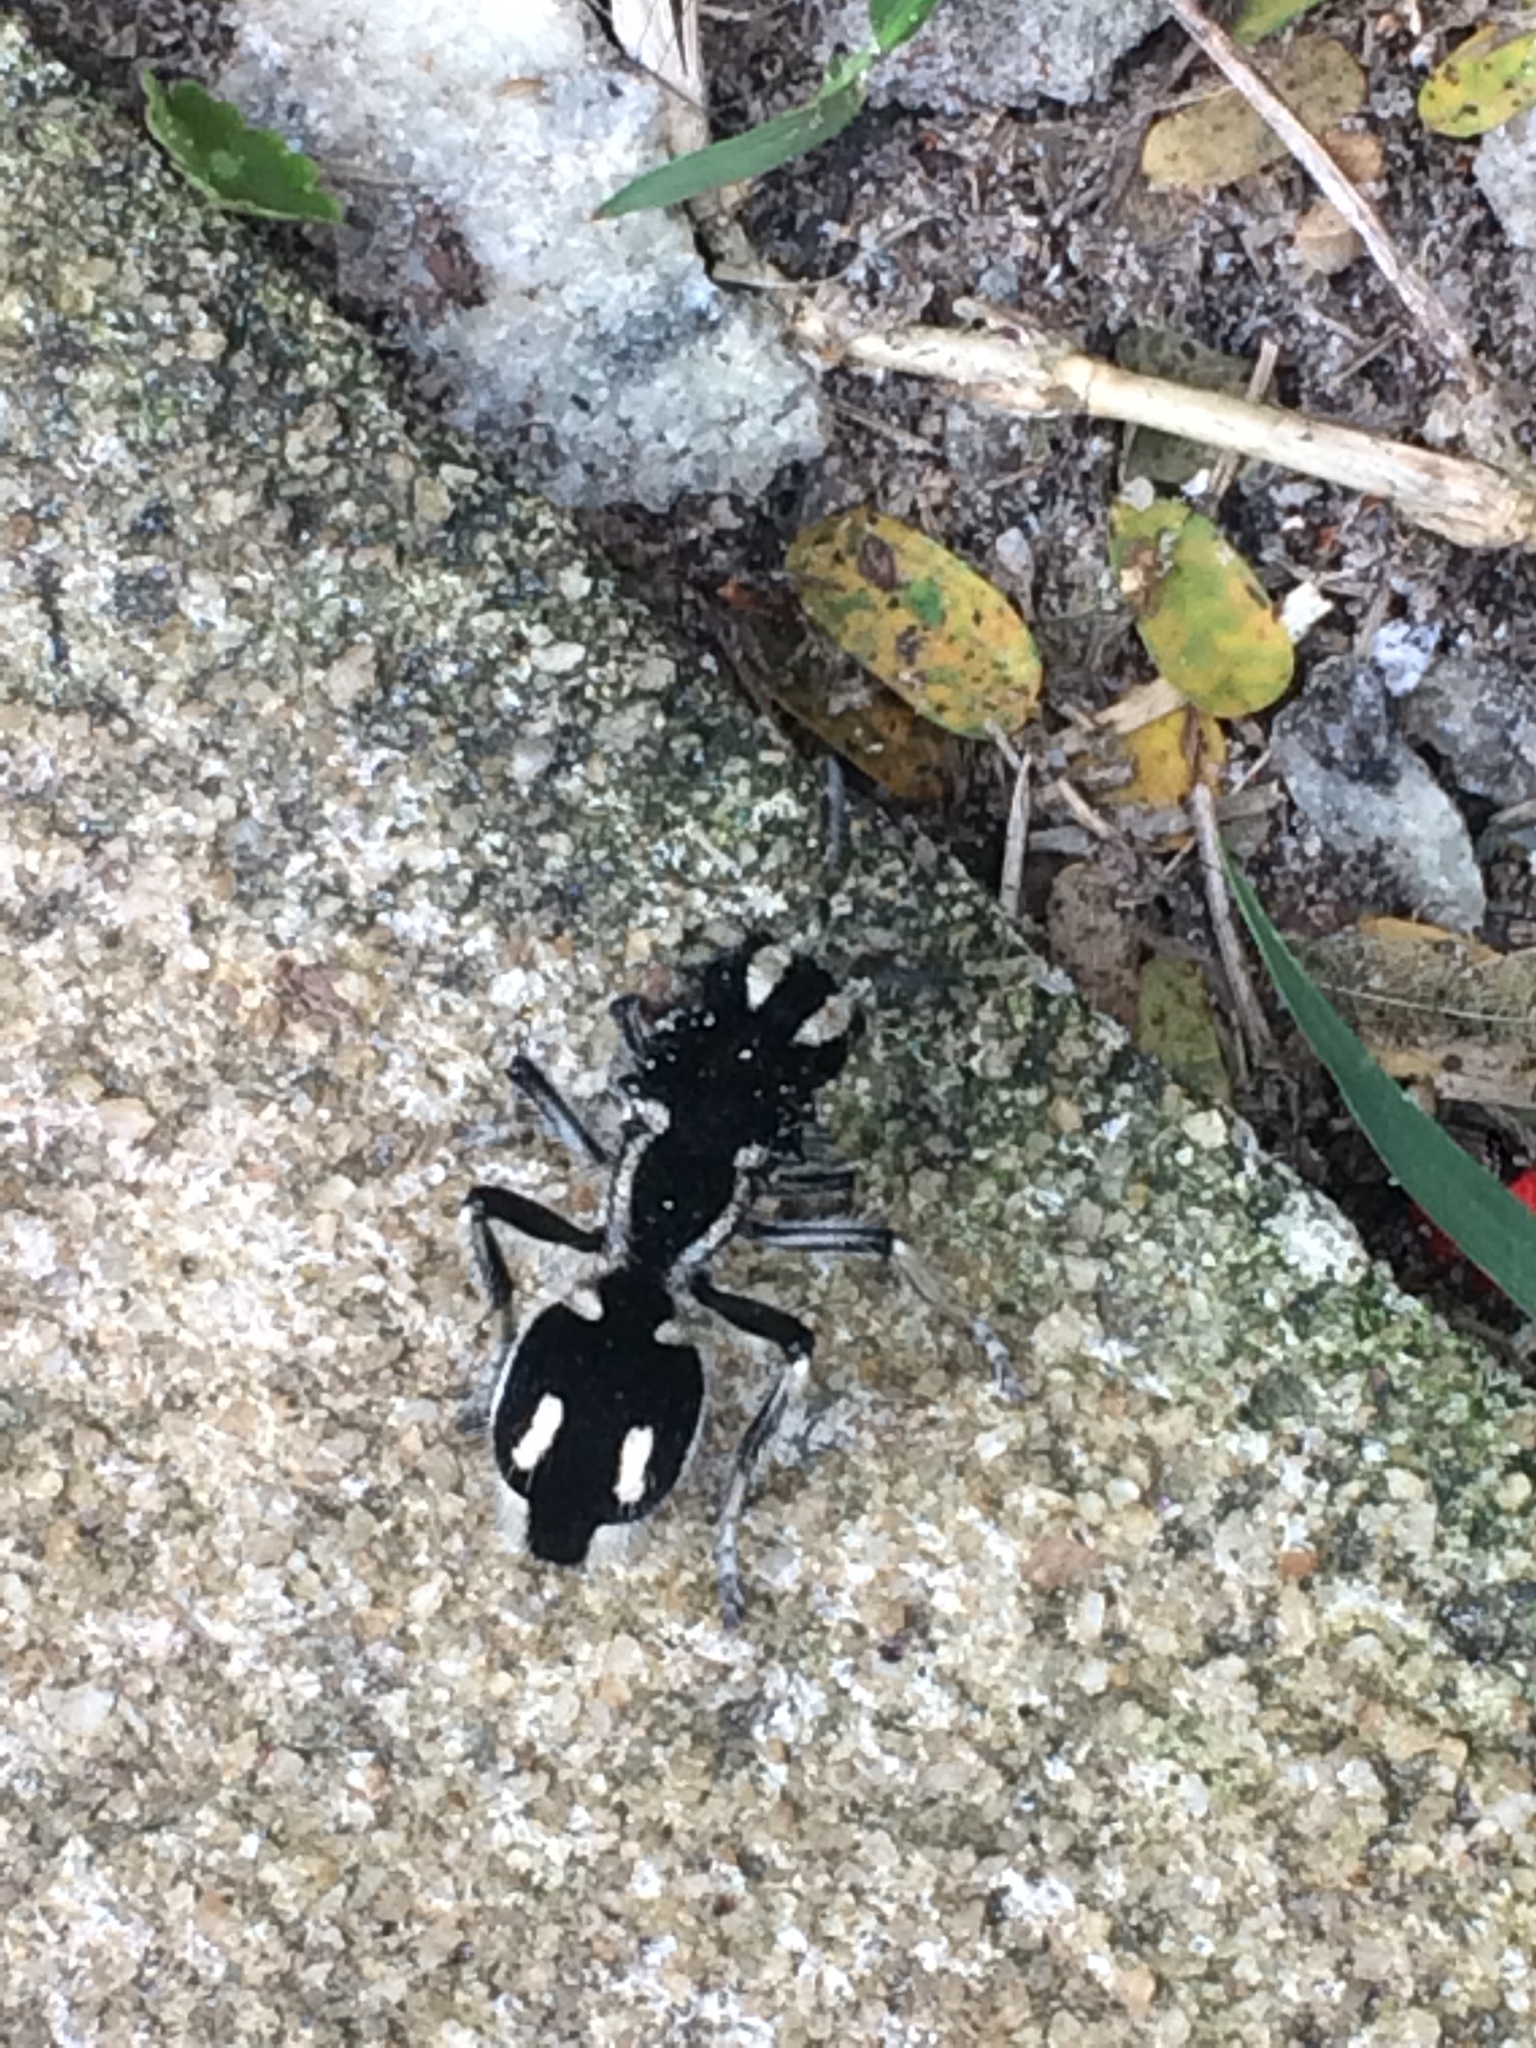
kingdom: Animalia
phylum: Arthropoda
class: Insecta
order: Hymenoptera
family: Mutillidae
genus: Hoplomutilla
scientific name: Hoplomutilla
